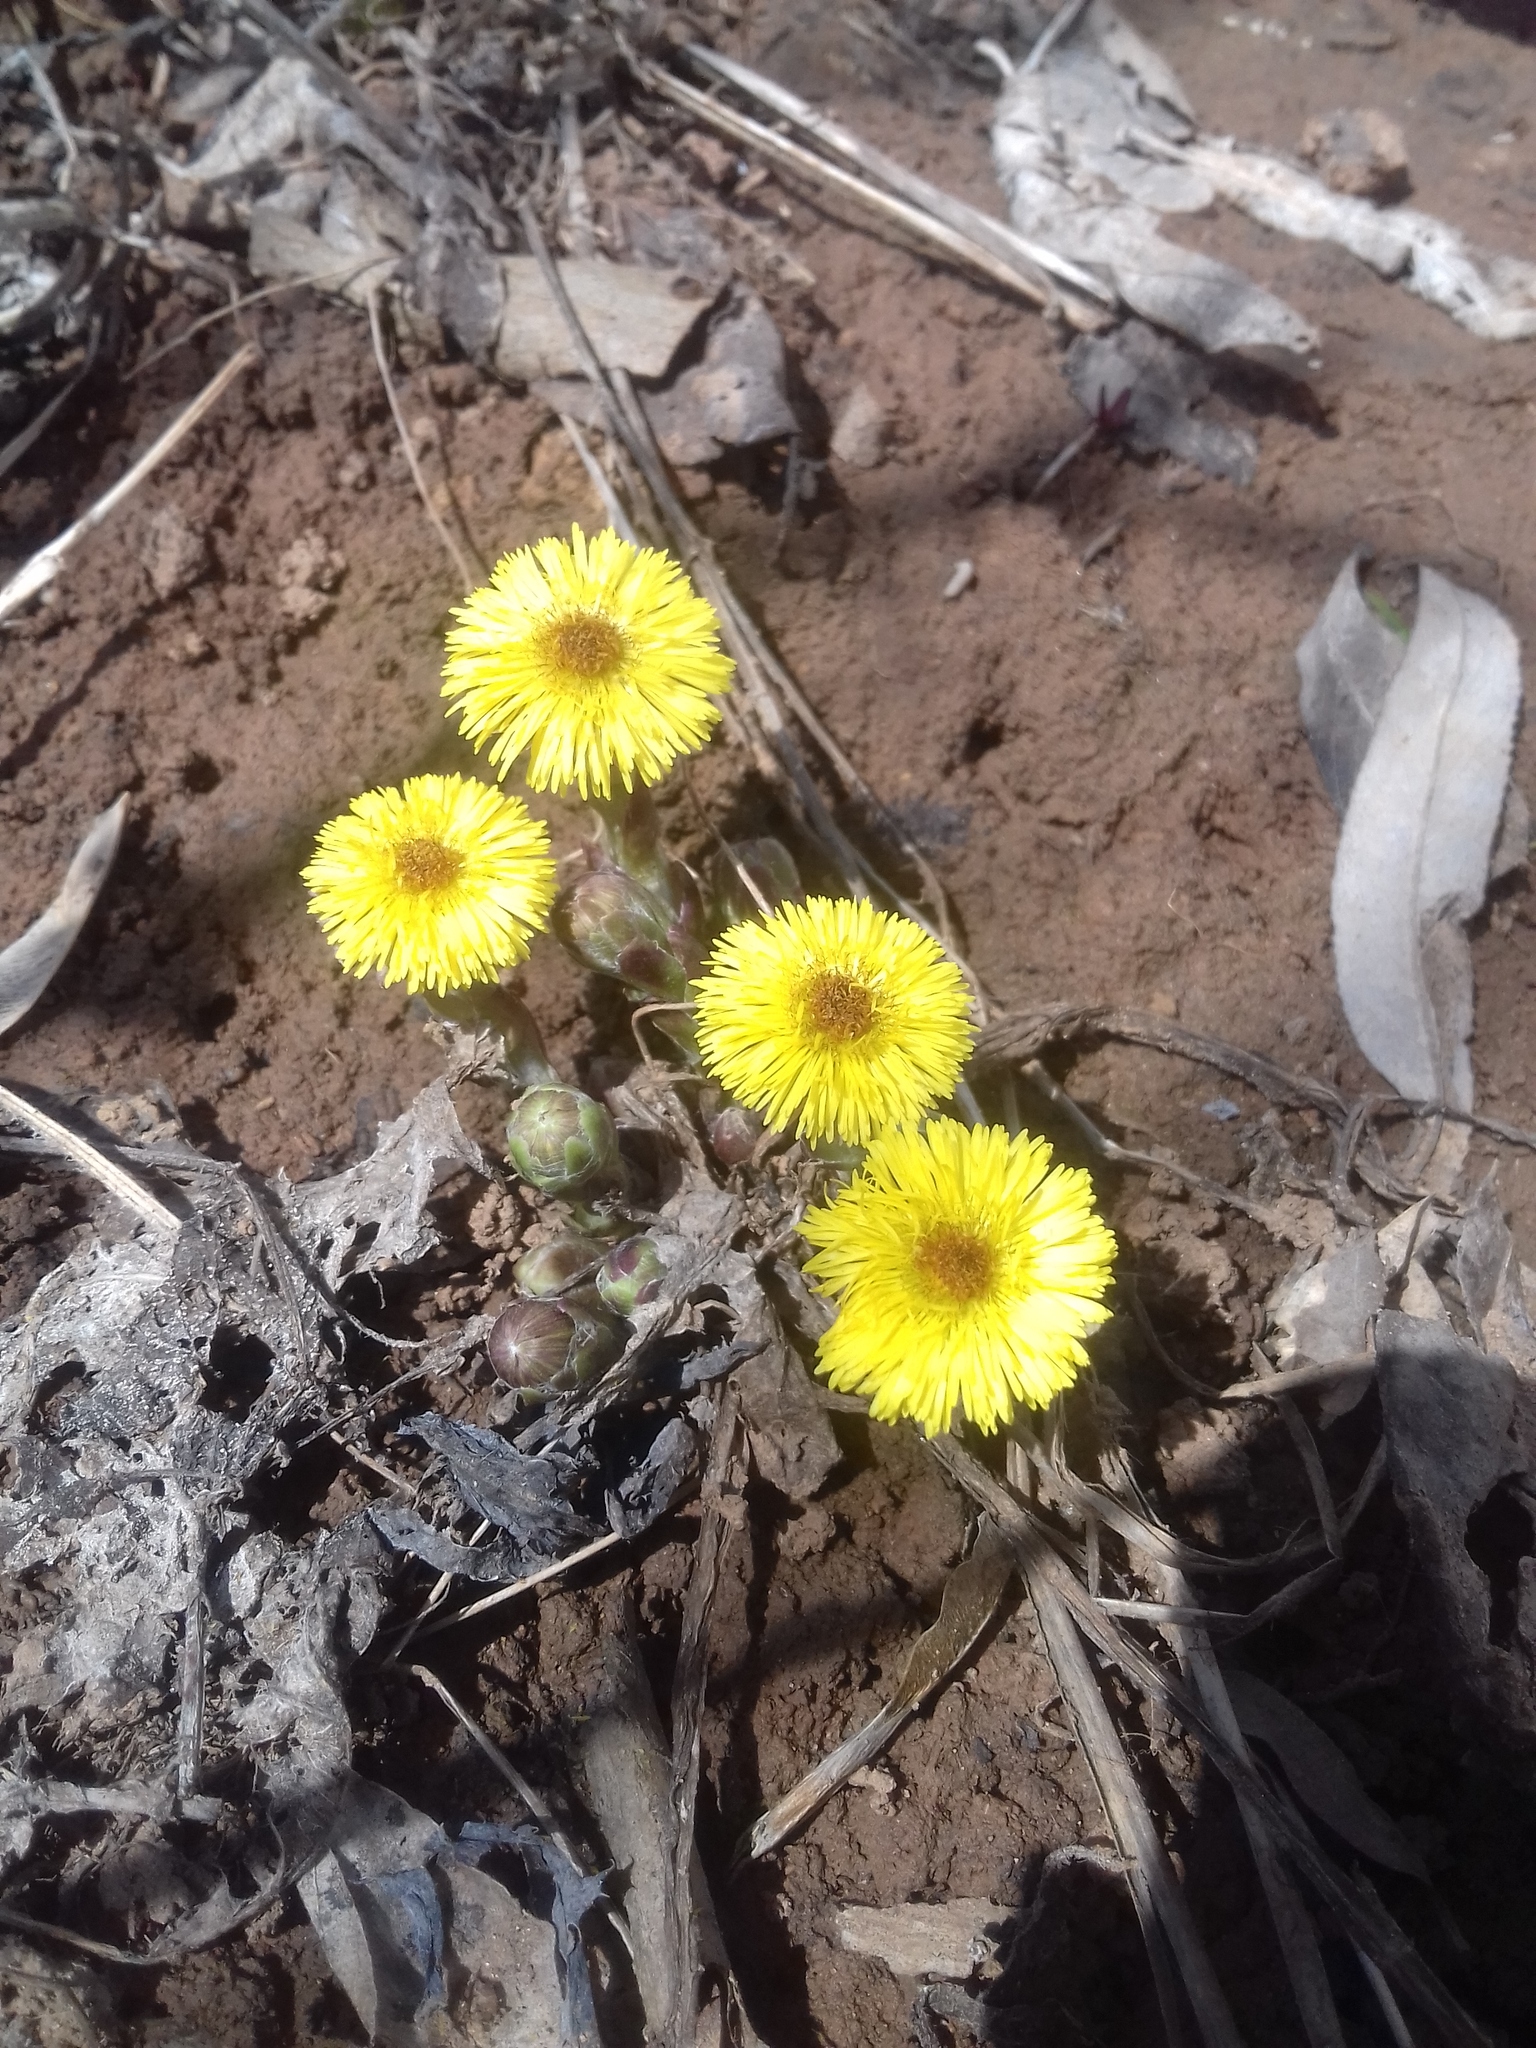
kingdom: Plantae
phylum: Tracheophyta
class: Magnoliopsida
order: Asterales
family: Asteraceae
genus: Tussilago
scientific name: Tussilago farfara
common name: Coltsfoot
